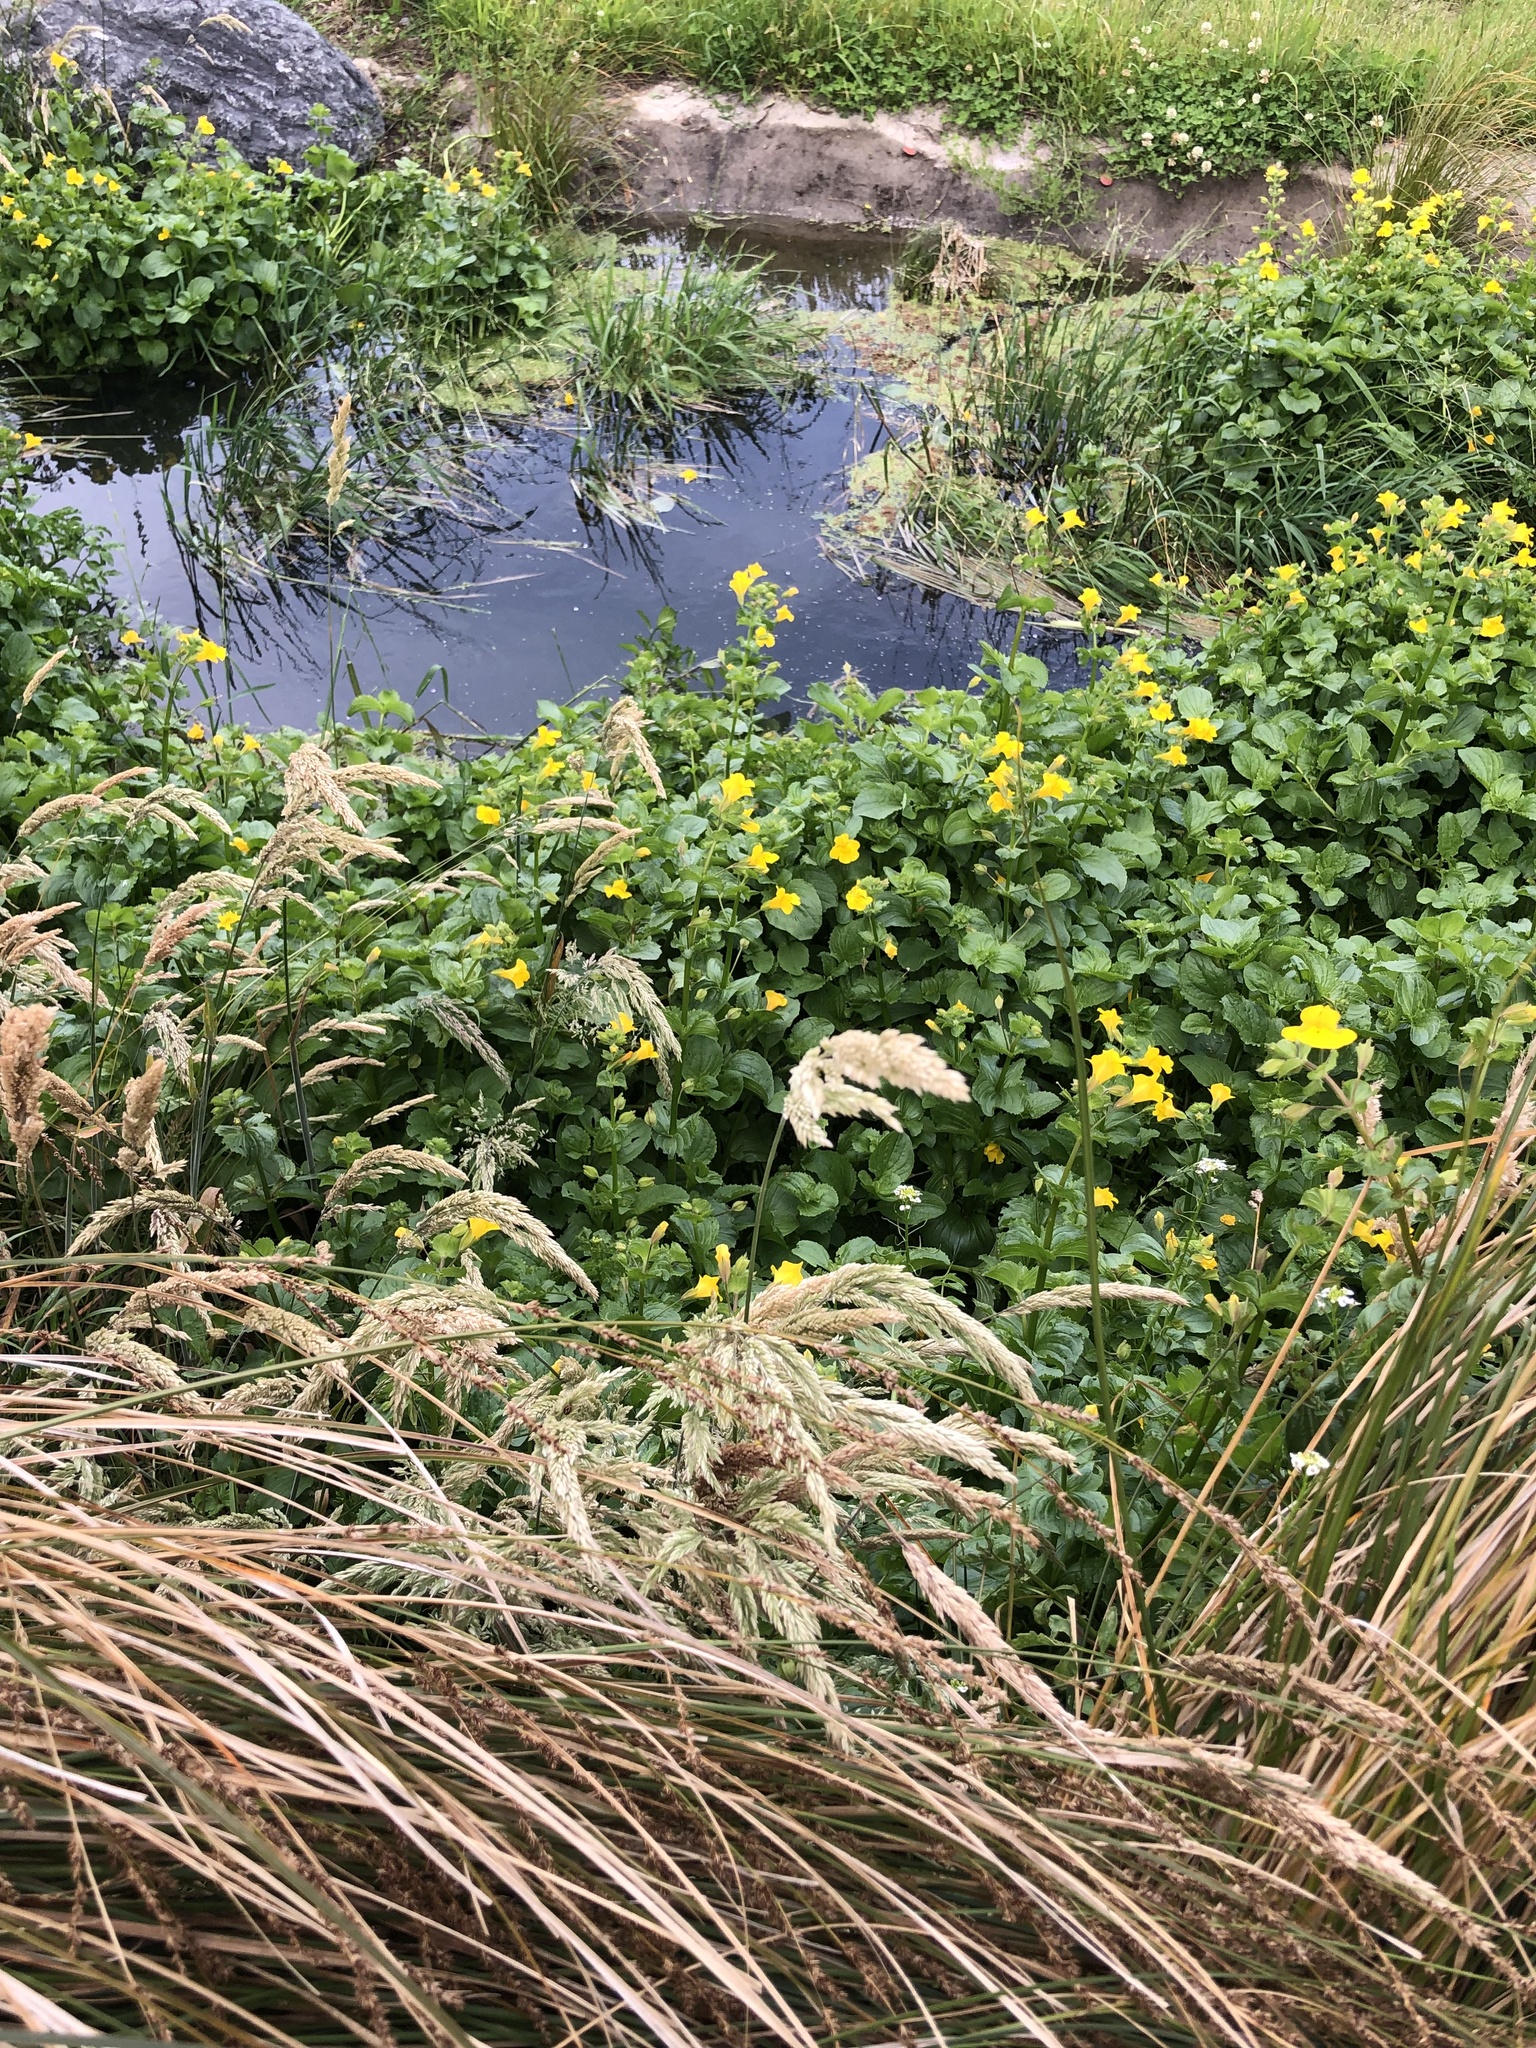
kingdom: Plantae
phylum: Tracheophyta
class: Magnoliopsida
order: Lamiales
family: Phrymaceae
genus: Erythranthe
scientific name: Erythranthe guttata
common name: Monkeyflower
